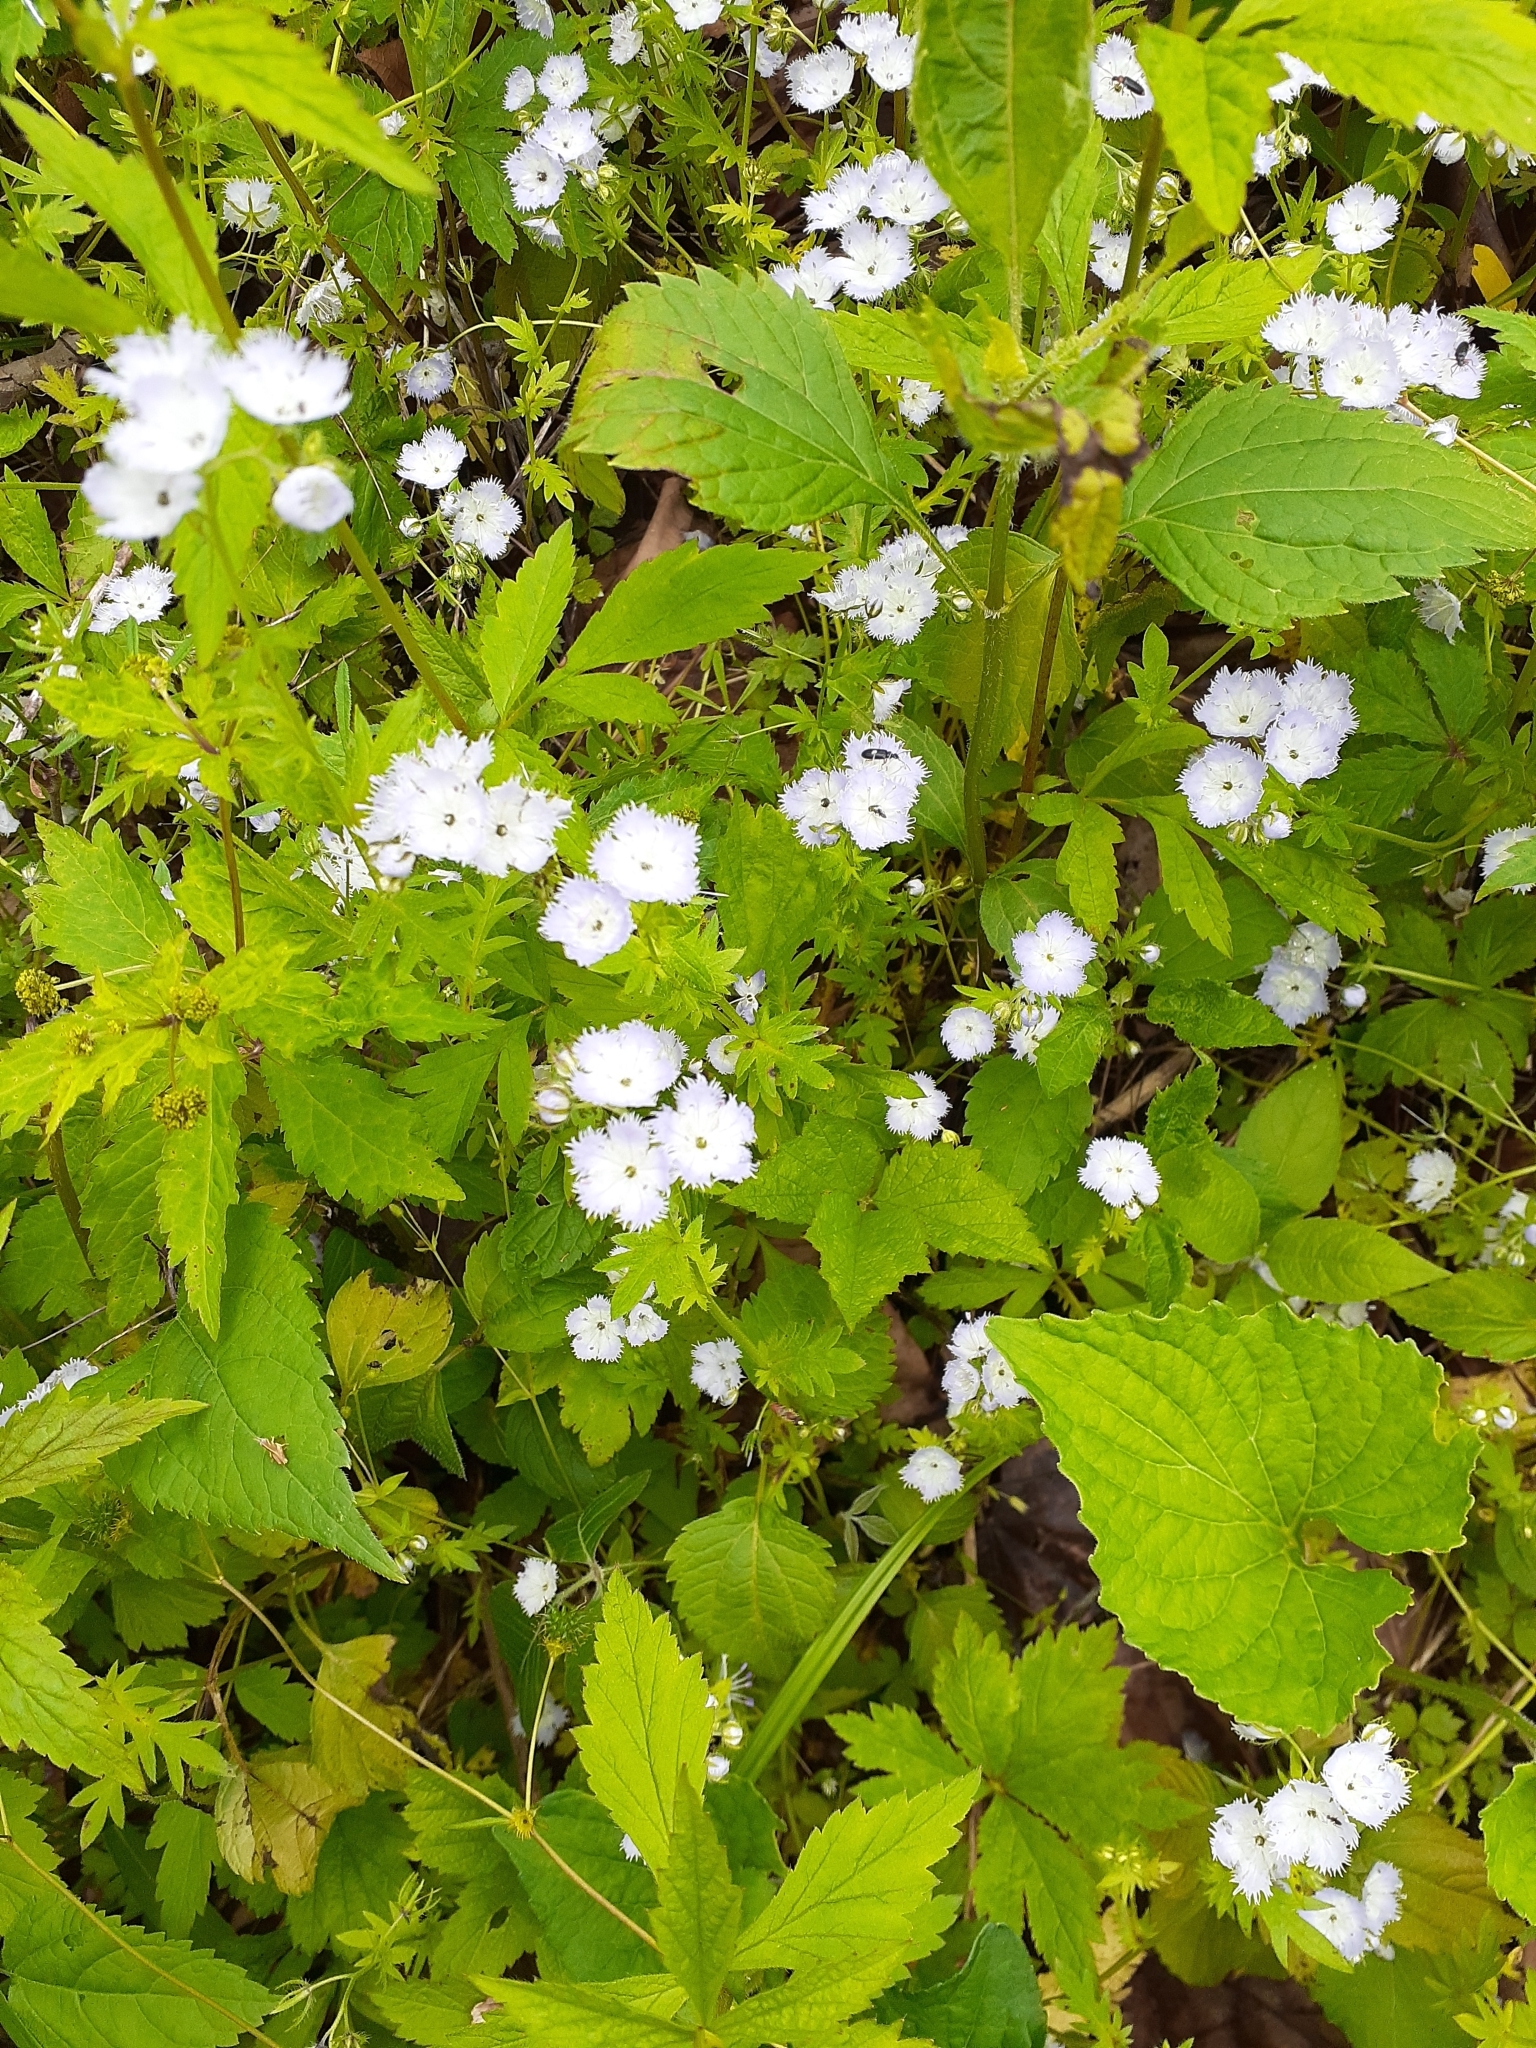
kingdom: Plantae
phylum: Tracheophyta
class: Magnoliopsida
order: Boraginales
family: Hydrophyllaceae
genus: Phacelia
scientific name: Phacelia purshii
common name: Miami-mist
